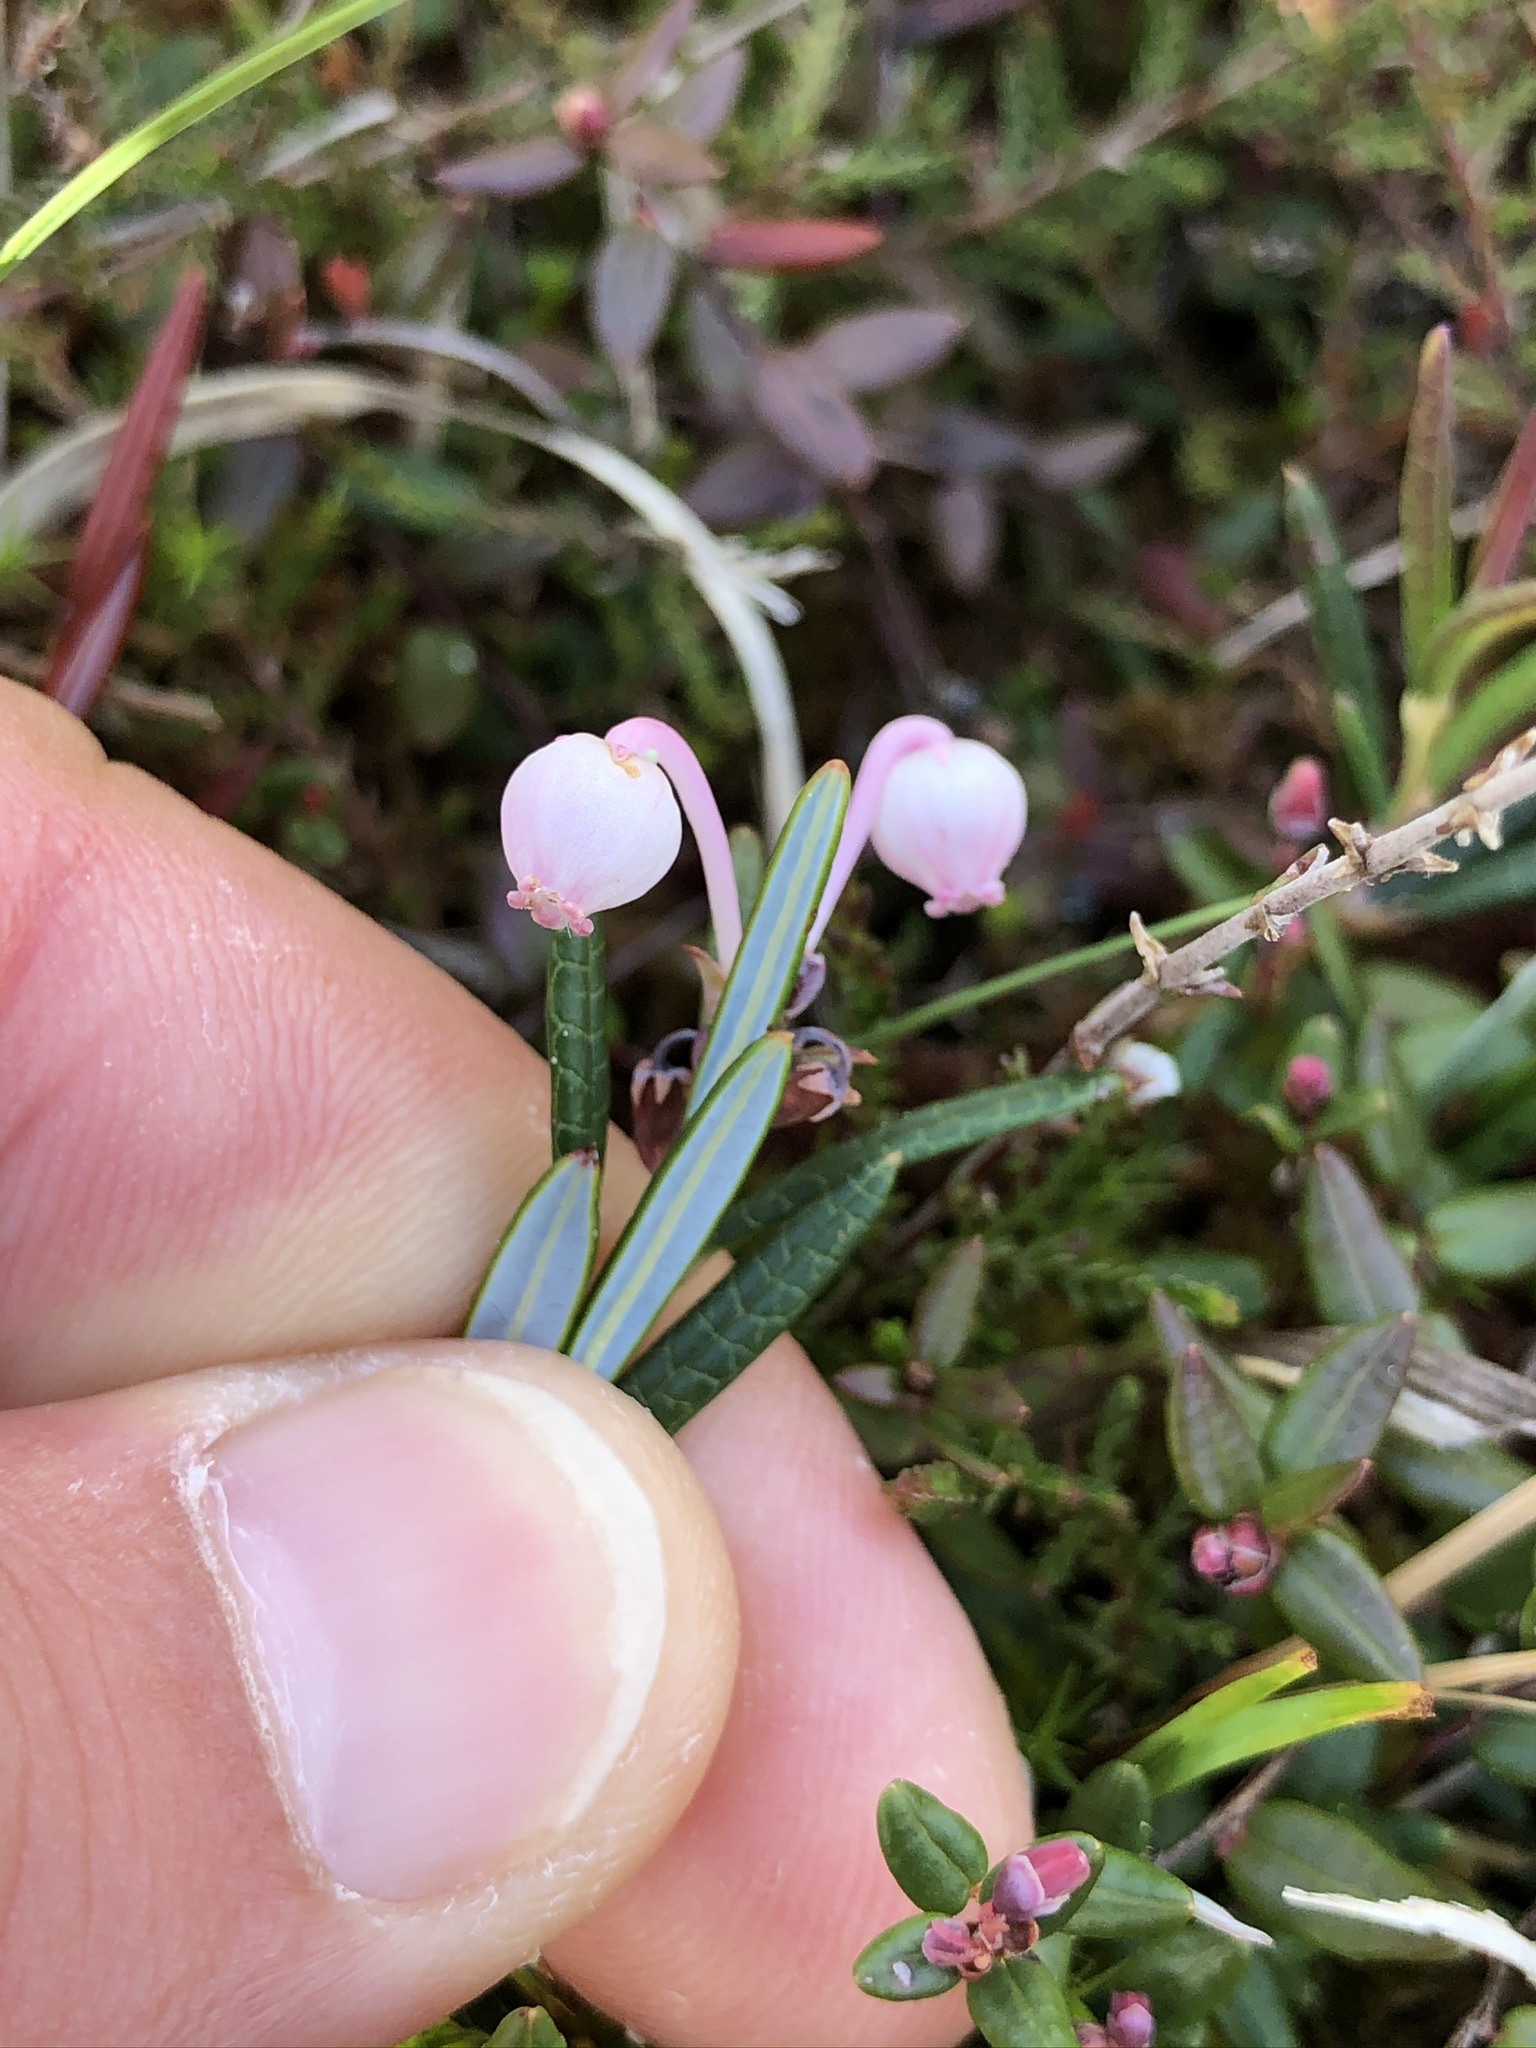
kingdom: Plantae
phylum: Tracheophyta
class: Magnoliopsida
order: Ericales
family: Ericaceae
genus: Andromeda
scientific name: Andromeda polifolia
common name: Bog-rosemary
